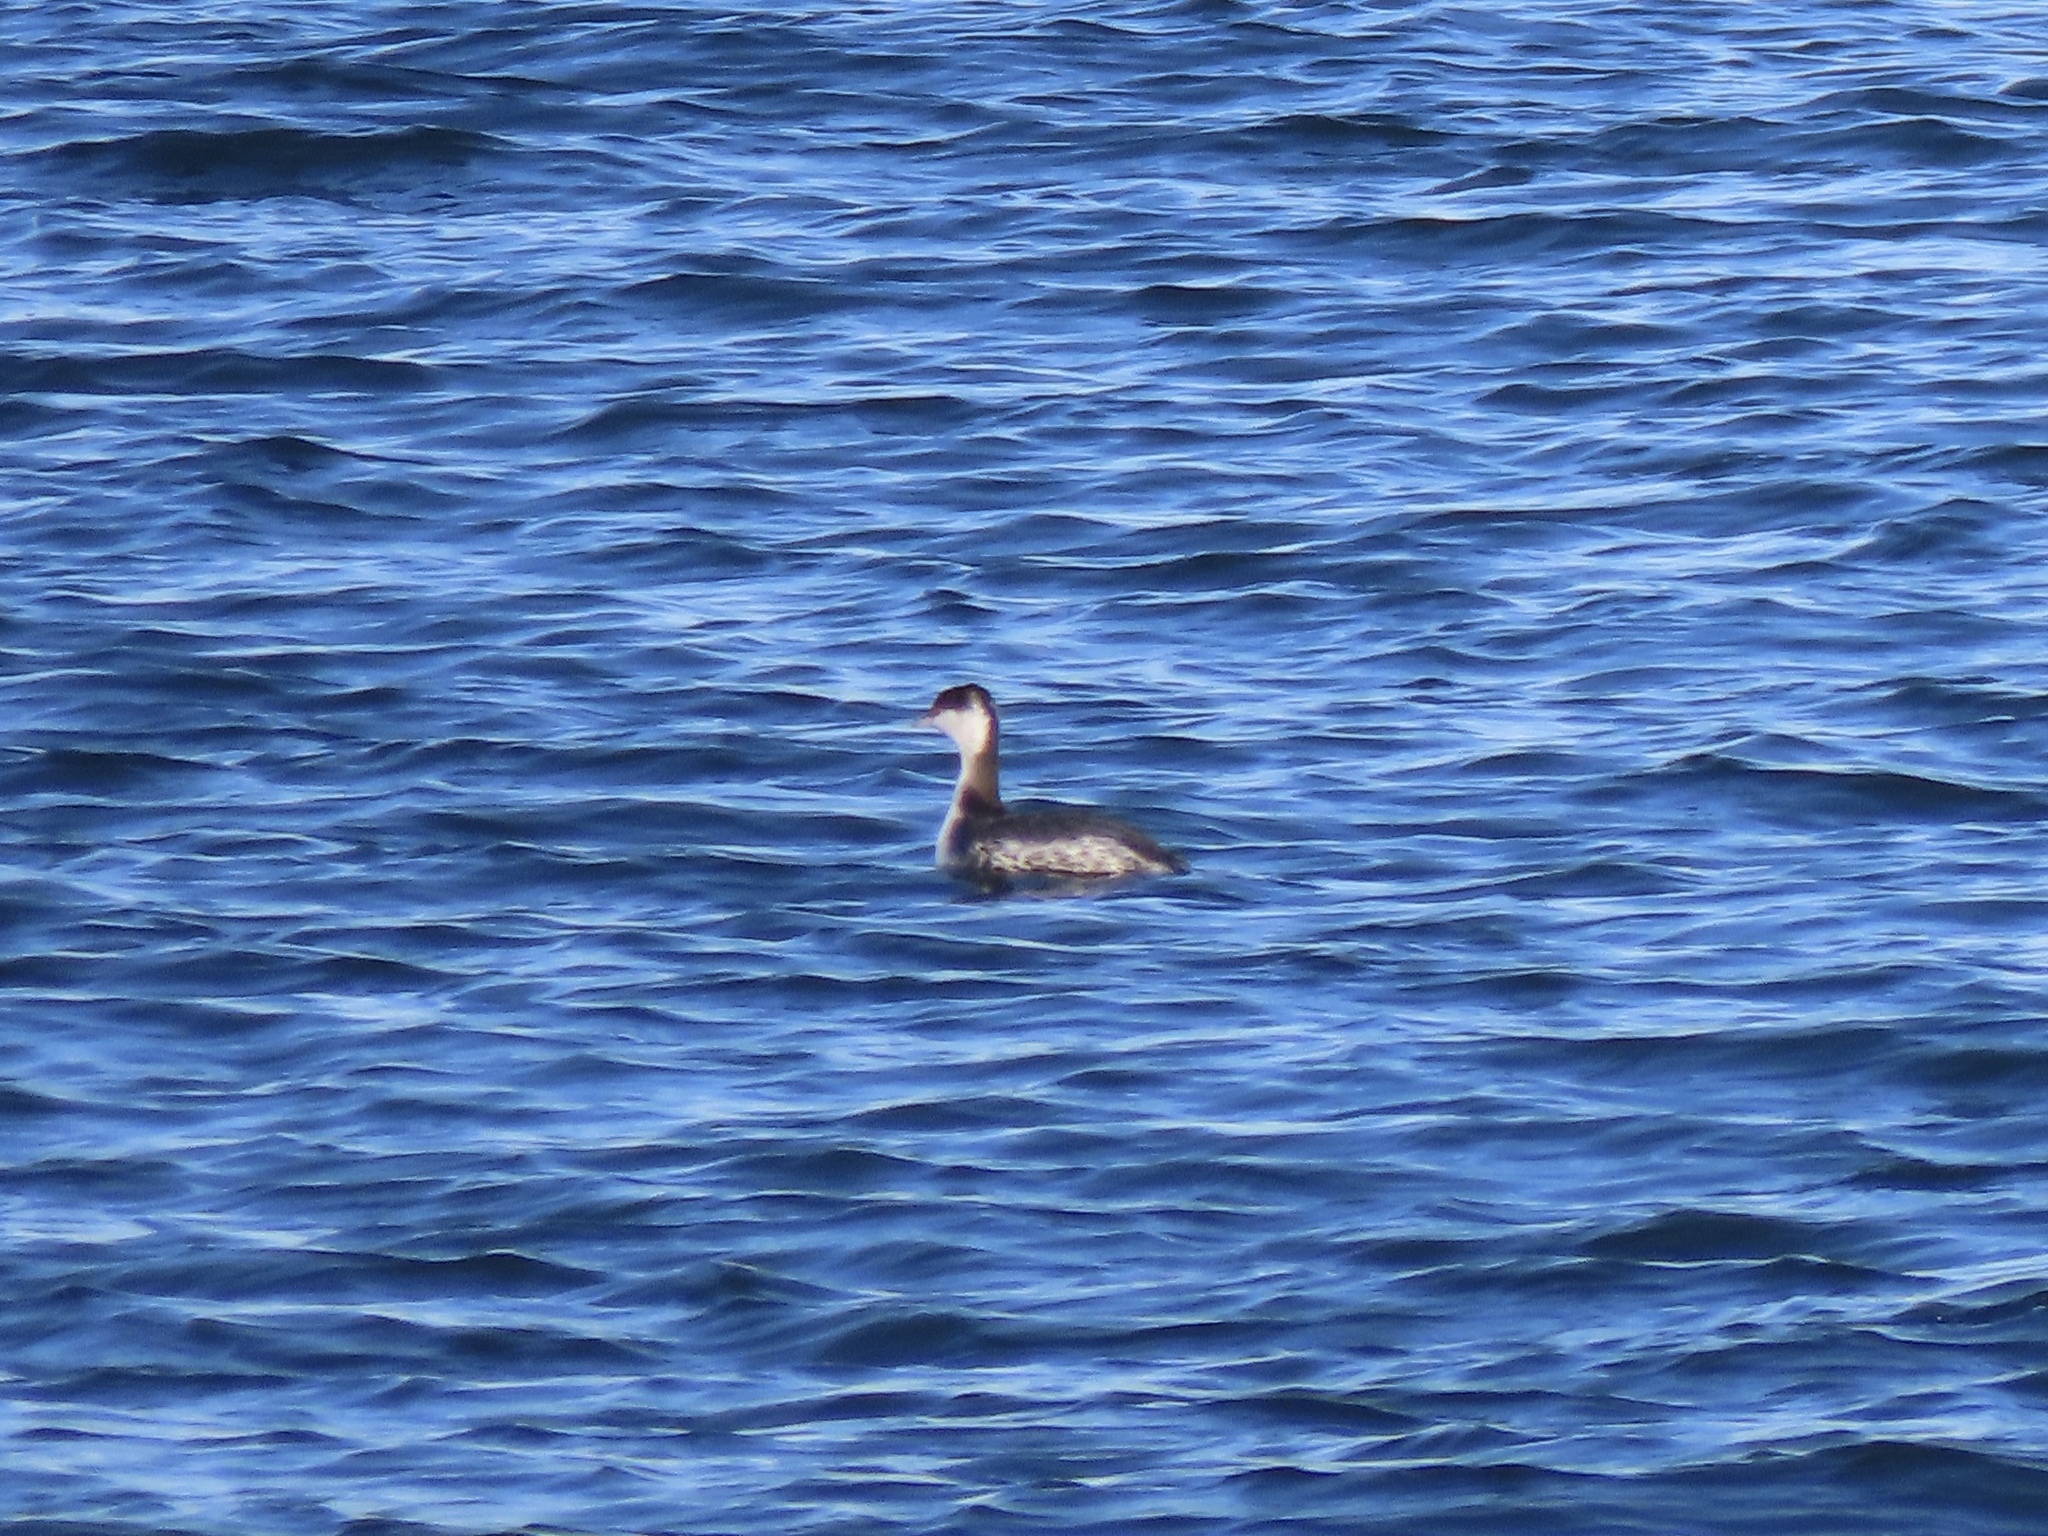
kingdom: Animalia
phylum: Chordata
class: Aves
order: Podicipediformes
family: Podicipedidae
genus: Podiceps
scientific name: Podiceps auritus
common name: Horned grebe
